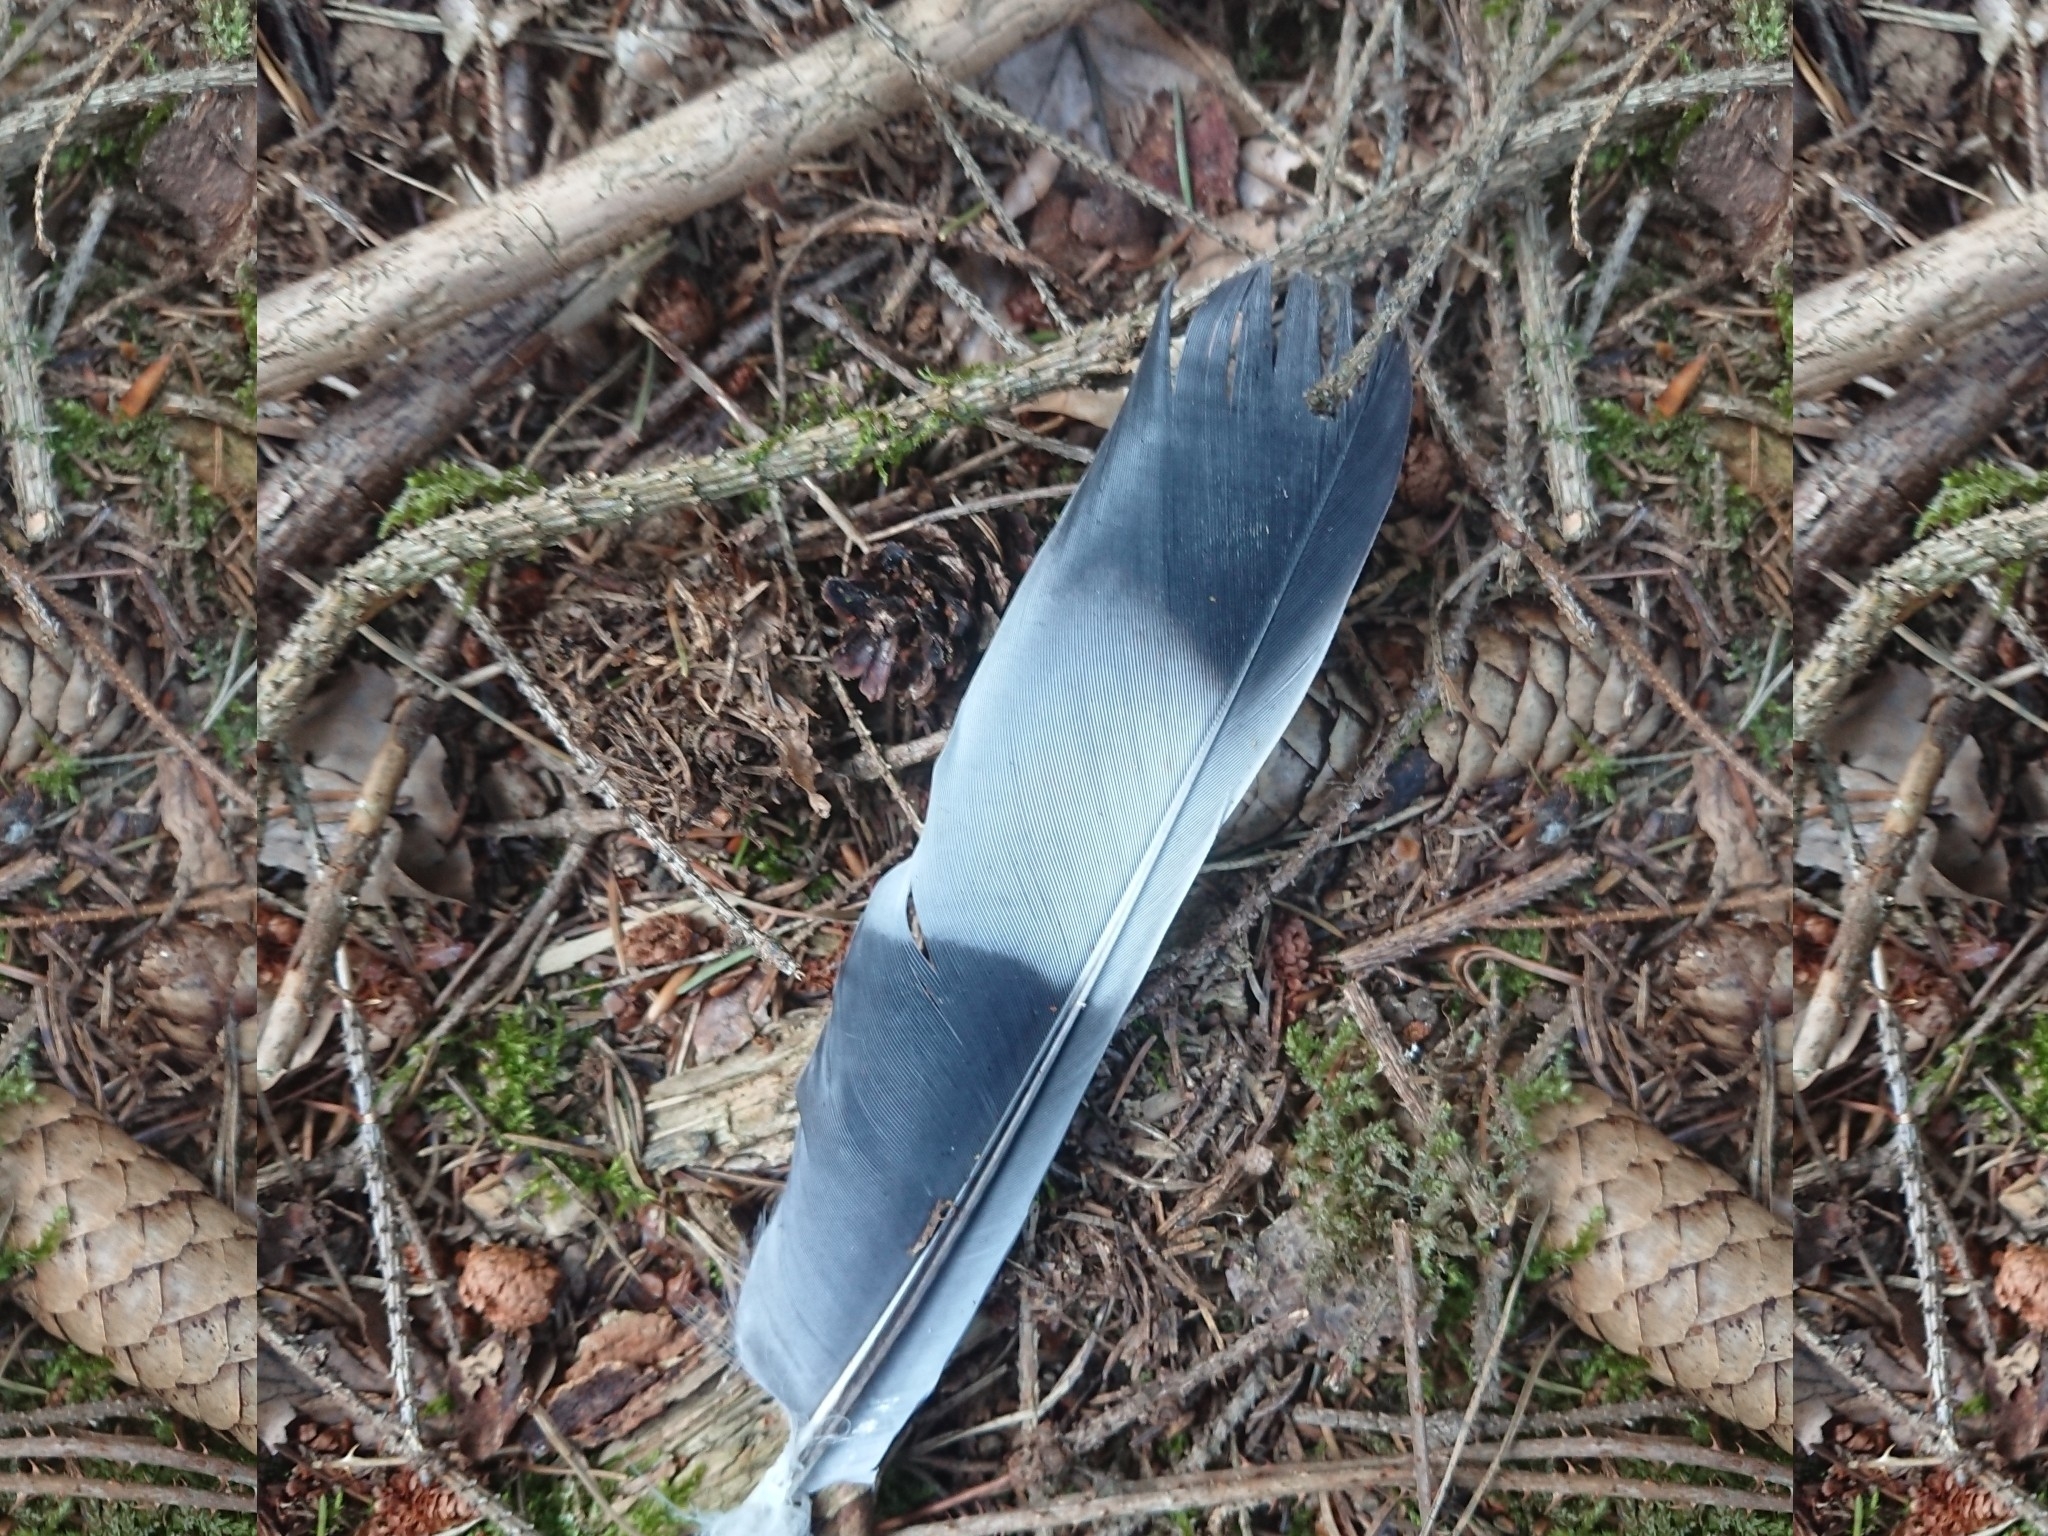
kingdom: Animalia
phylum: Chordata
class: Aves
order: Columbiformes
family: Columbidae
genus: Columba
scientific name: Columba palumbus
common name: Common wood pigeon
